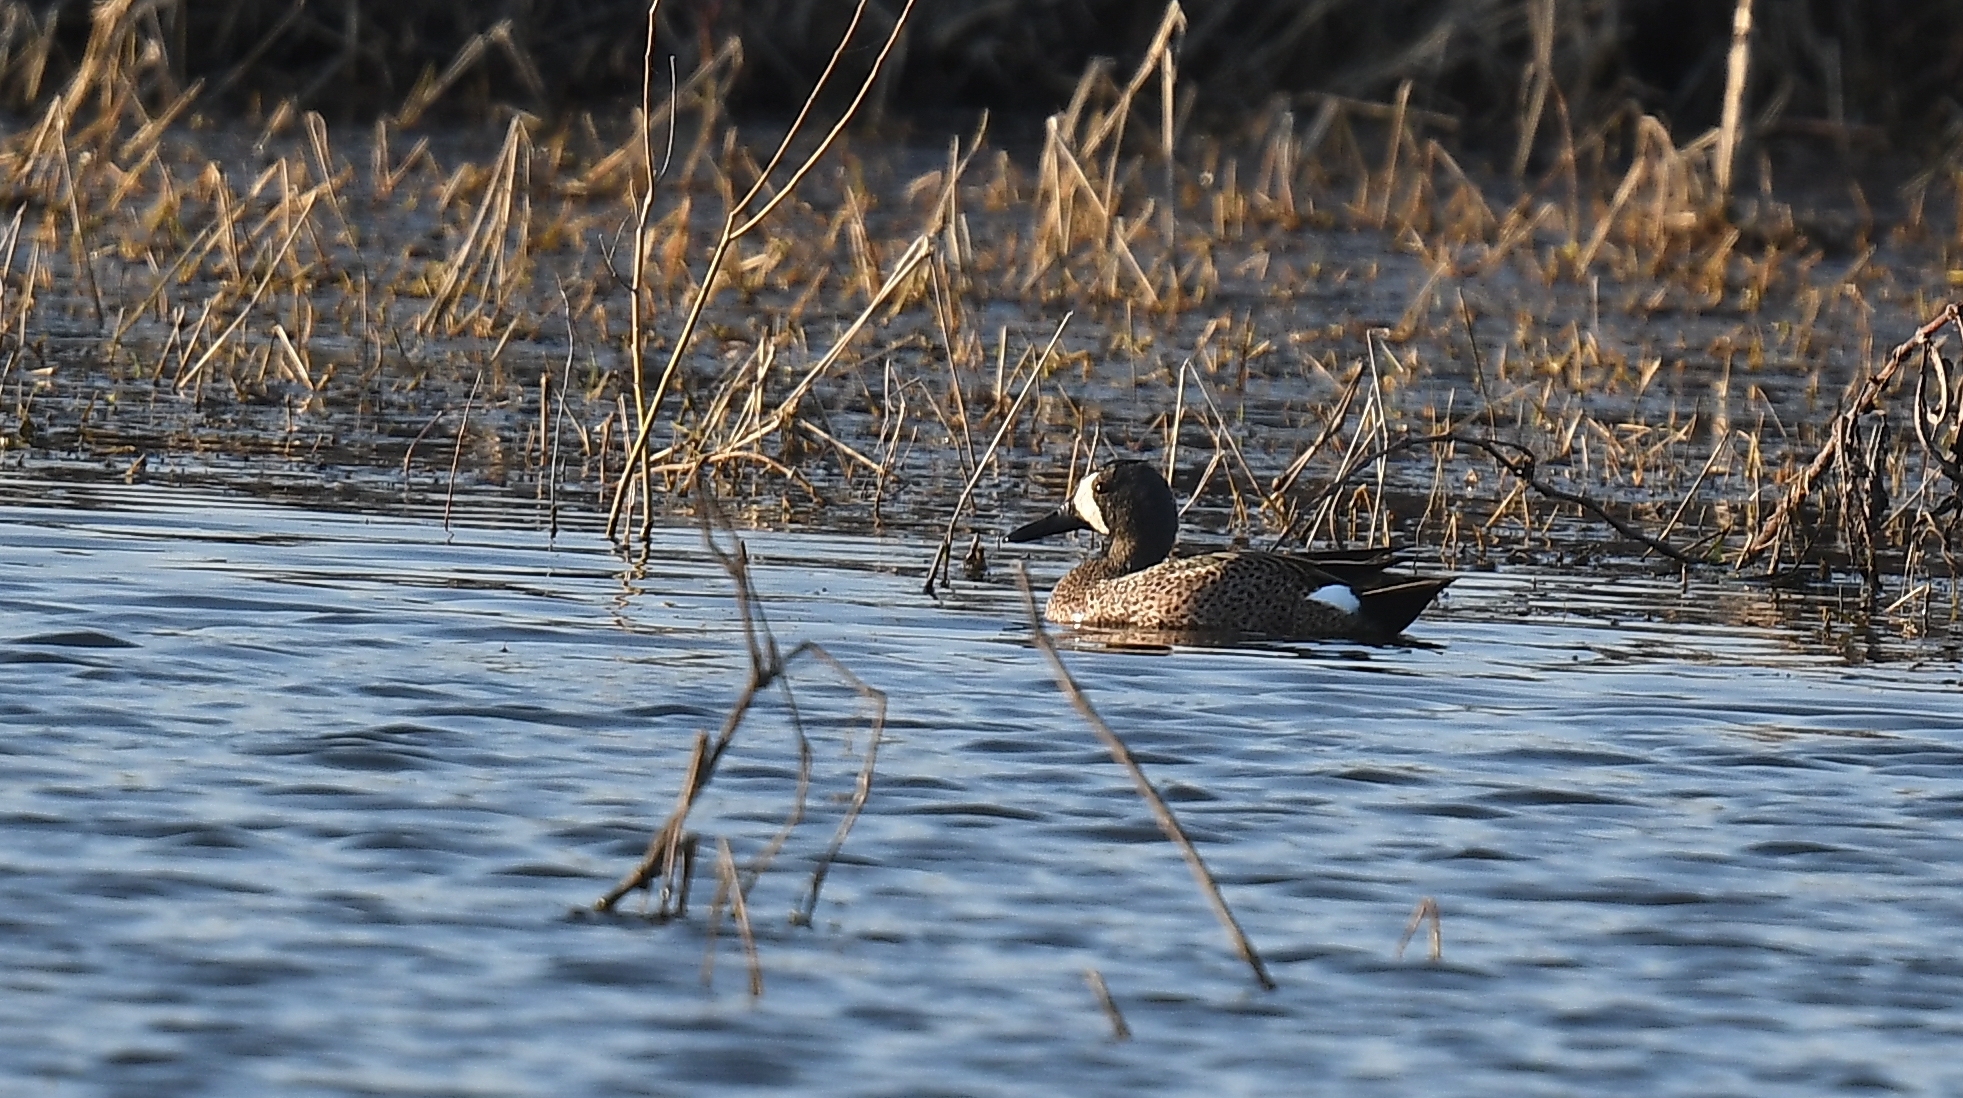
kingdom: Animalia
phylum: Chordata
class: Aves
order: Anseriformes
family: Anatidae
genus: Spatula
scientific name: Spatula discors
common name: Blue-winged teal
